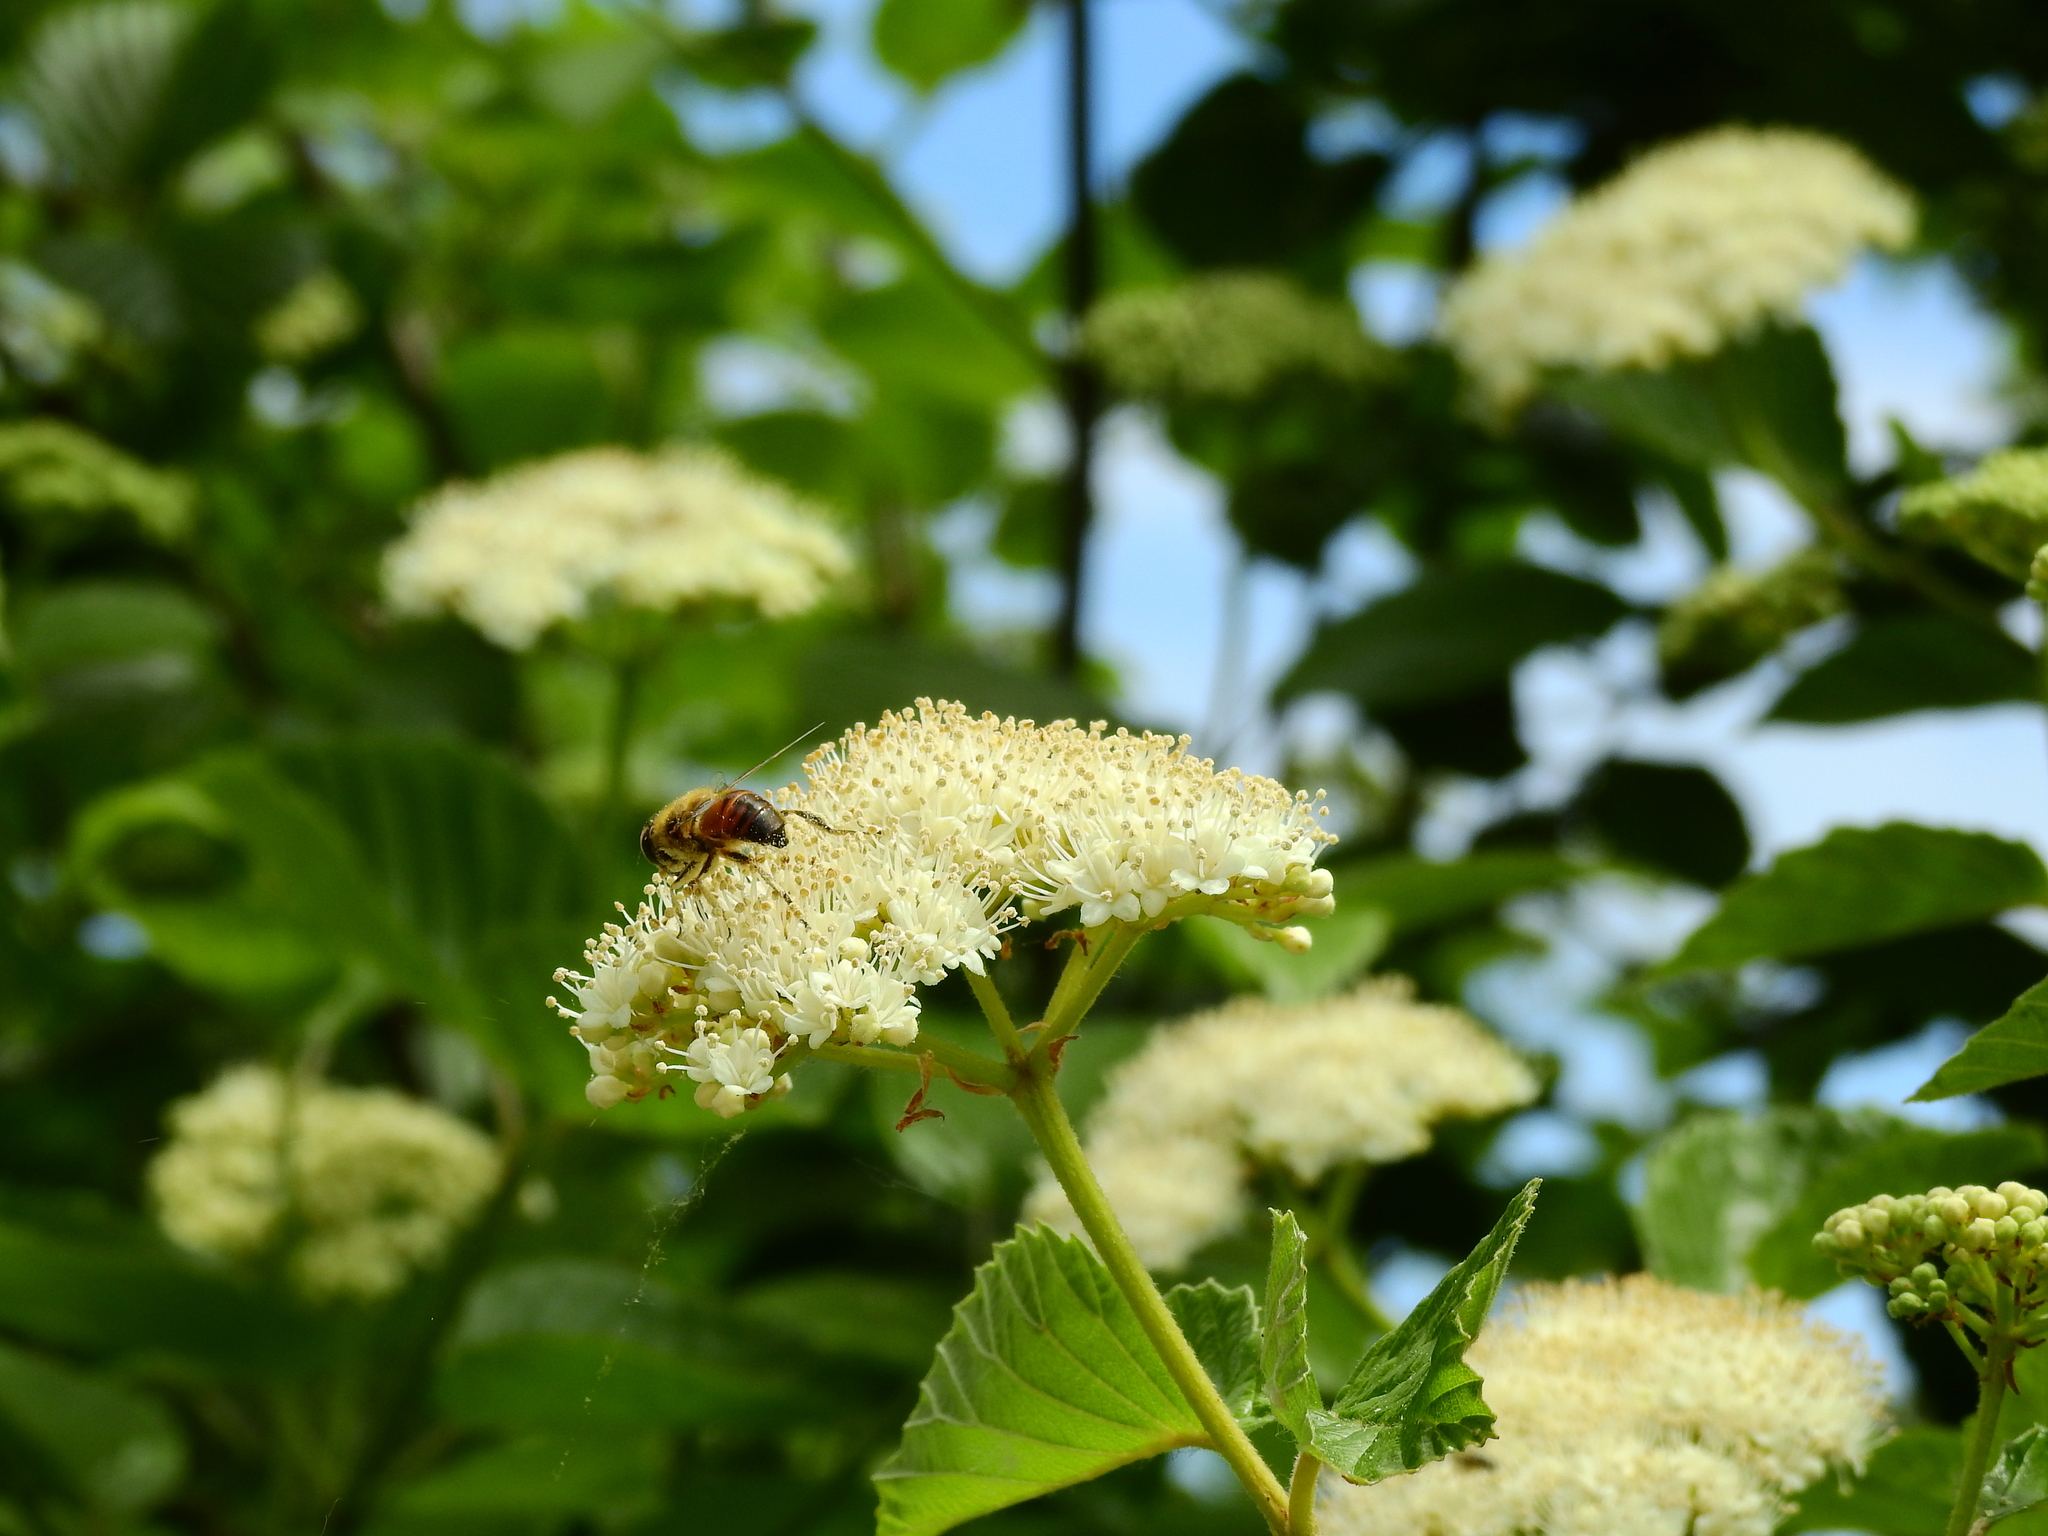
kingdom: Animalia
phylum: Arthropoda
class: Insecta
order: Diptera
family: Syrphidae
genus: Eristalis
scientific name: Eristalis tenax
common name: Drone fly
